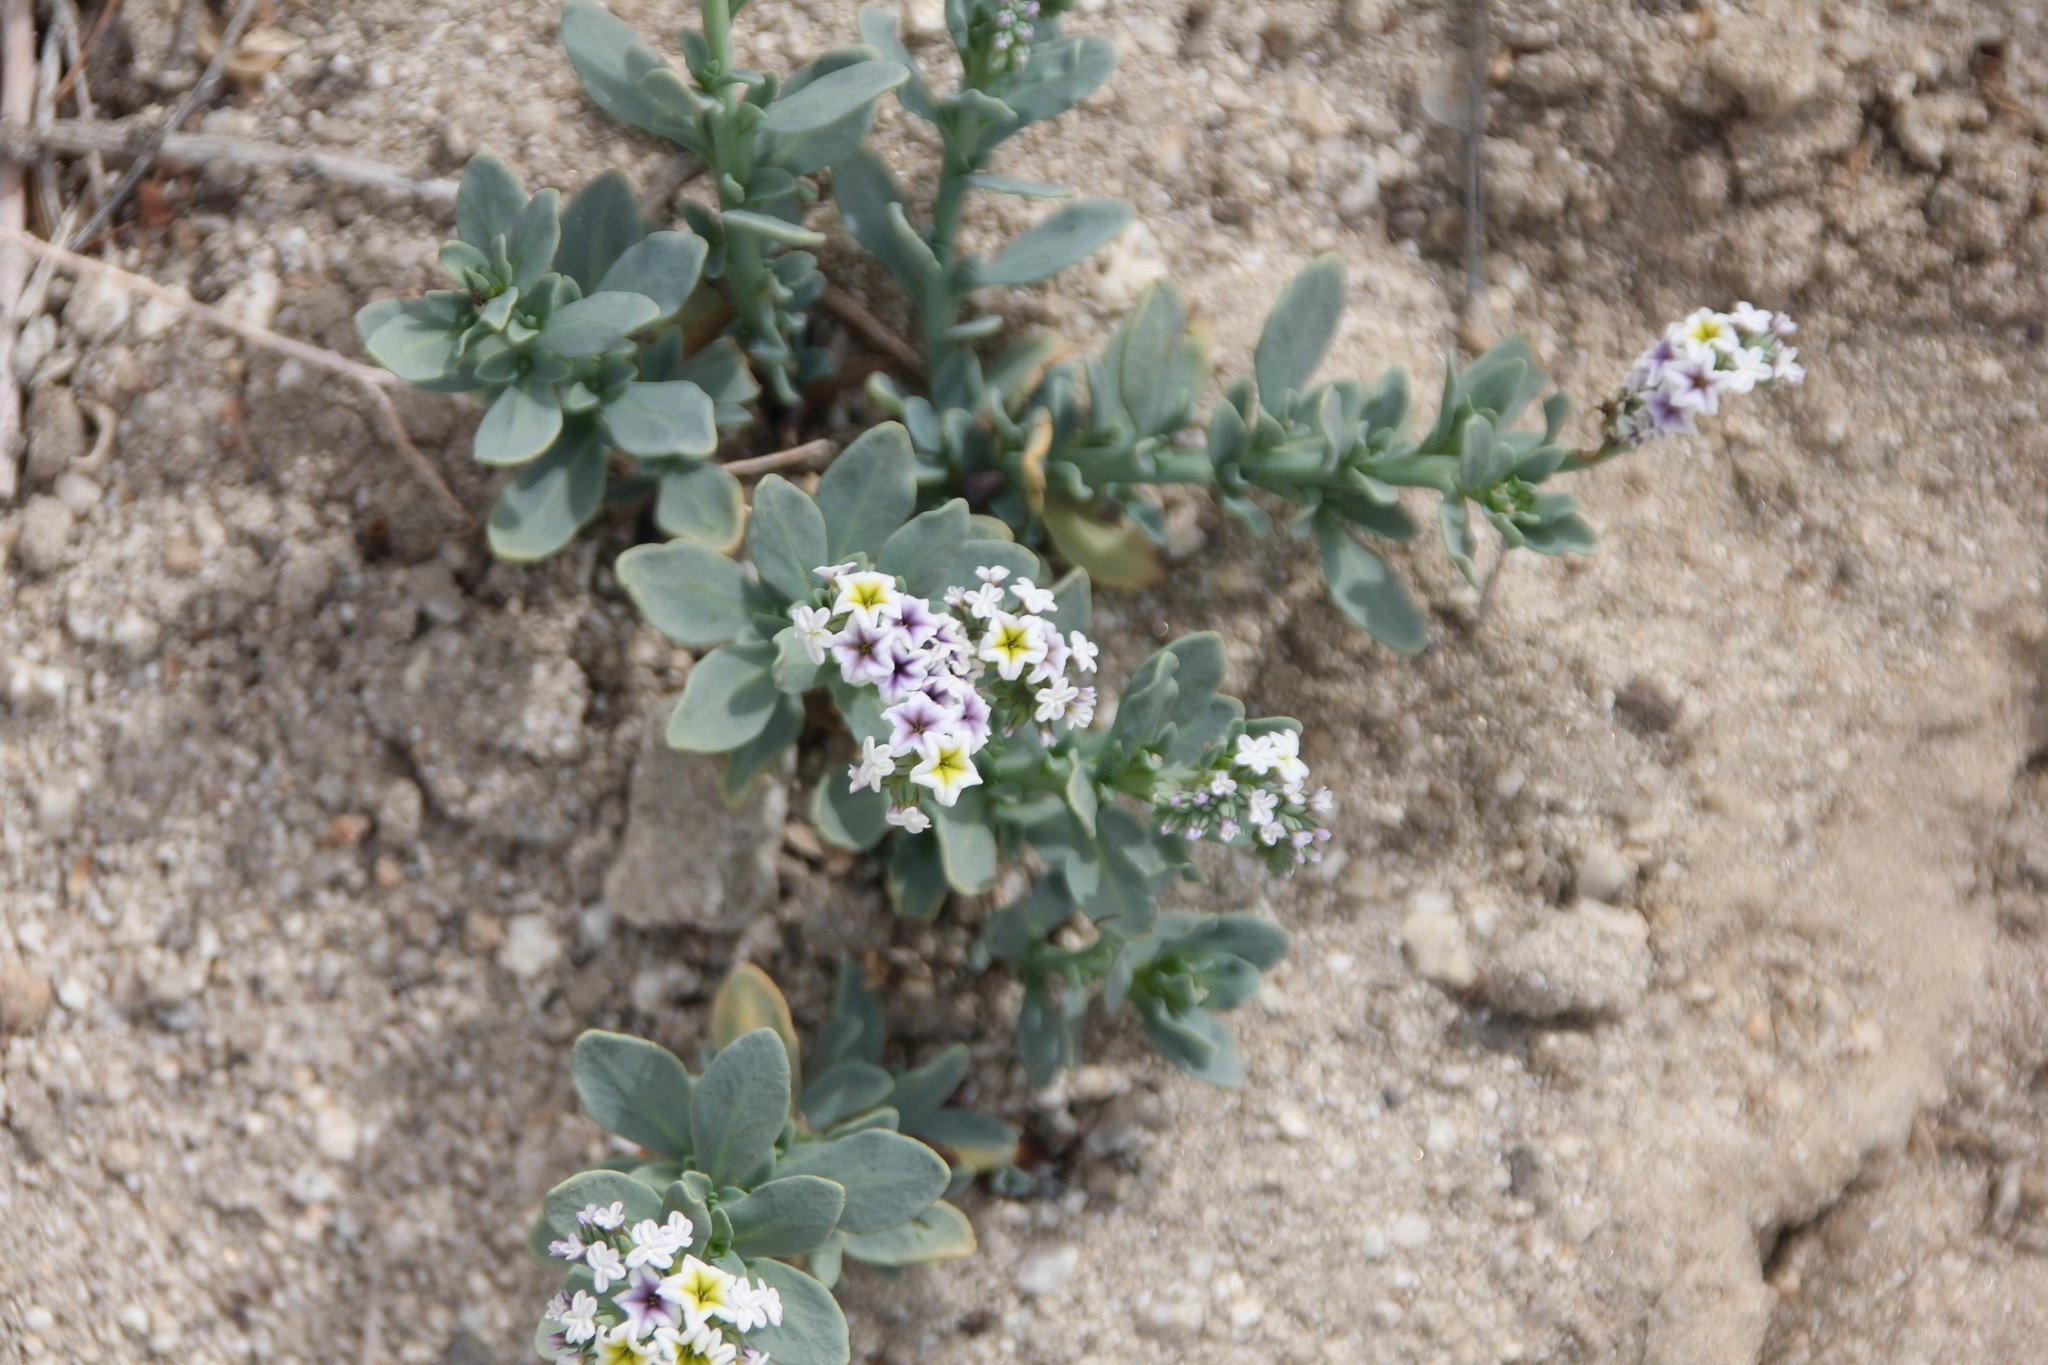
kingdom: Plantae
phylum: Tracheophyta
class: Magnoliopsida
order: Boraginales
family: Heliotropiaceae
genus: Heliotropium
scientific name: Heliotropium curassavicum
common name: Seaside heliotrope
